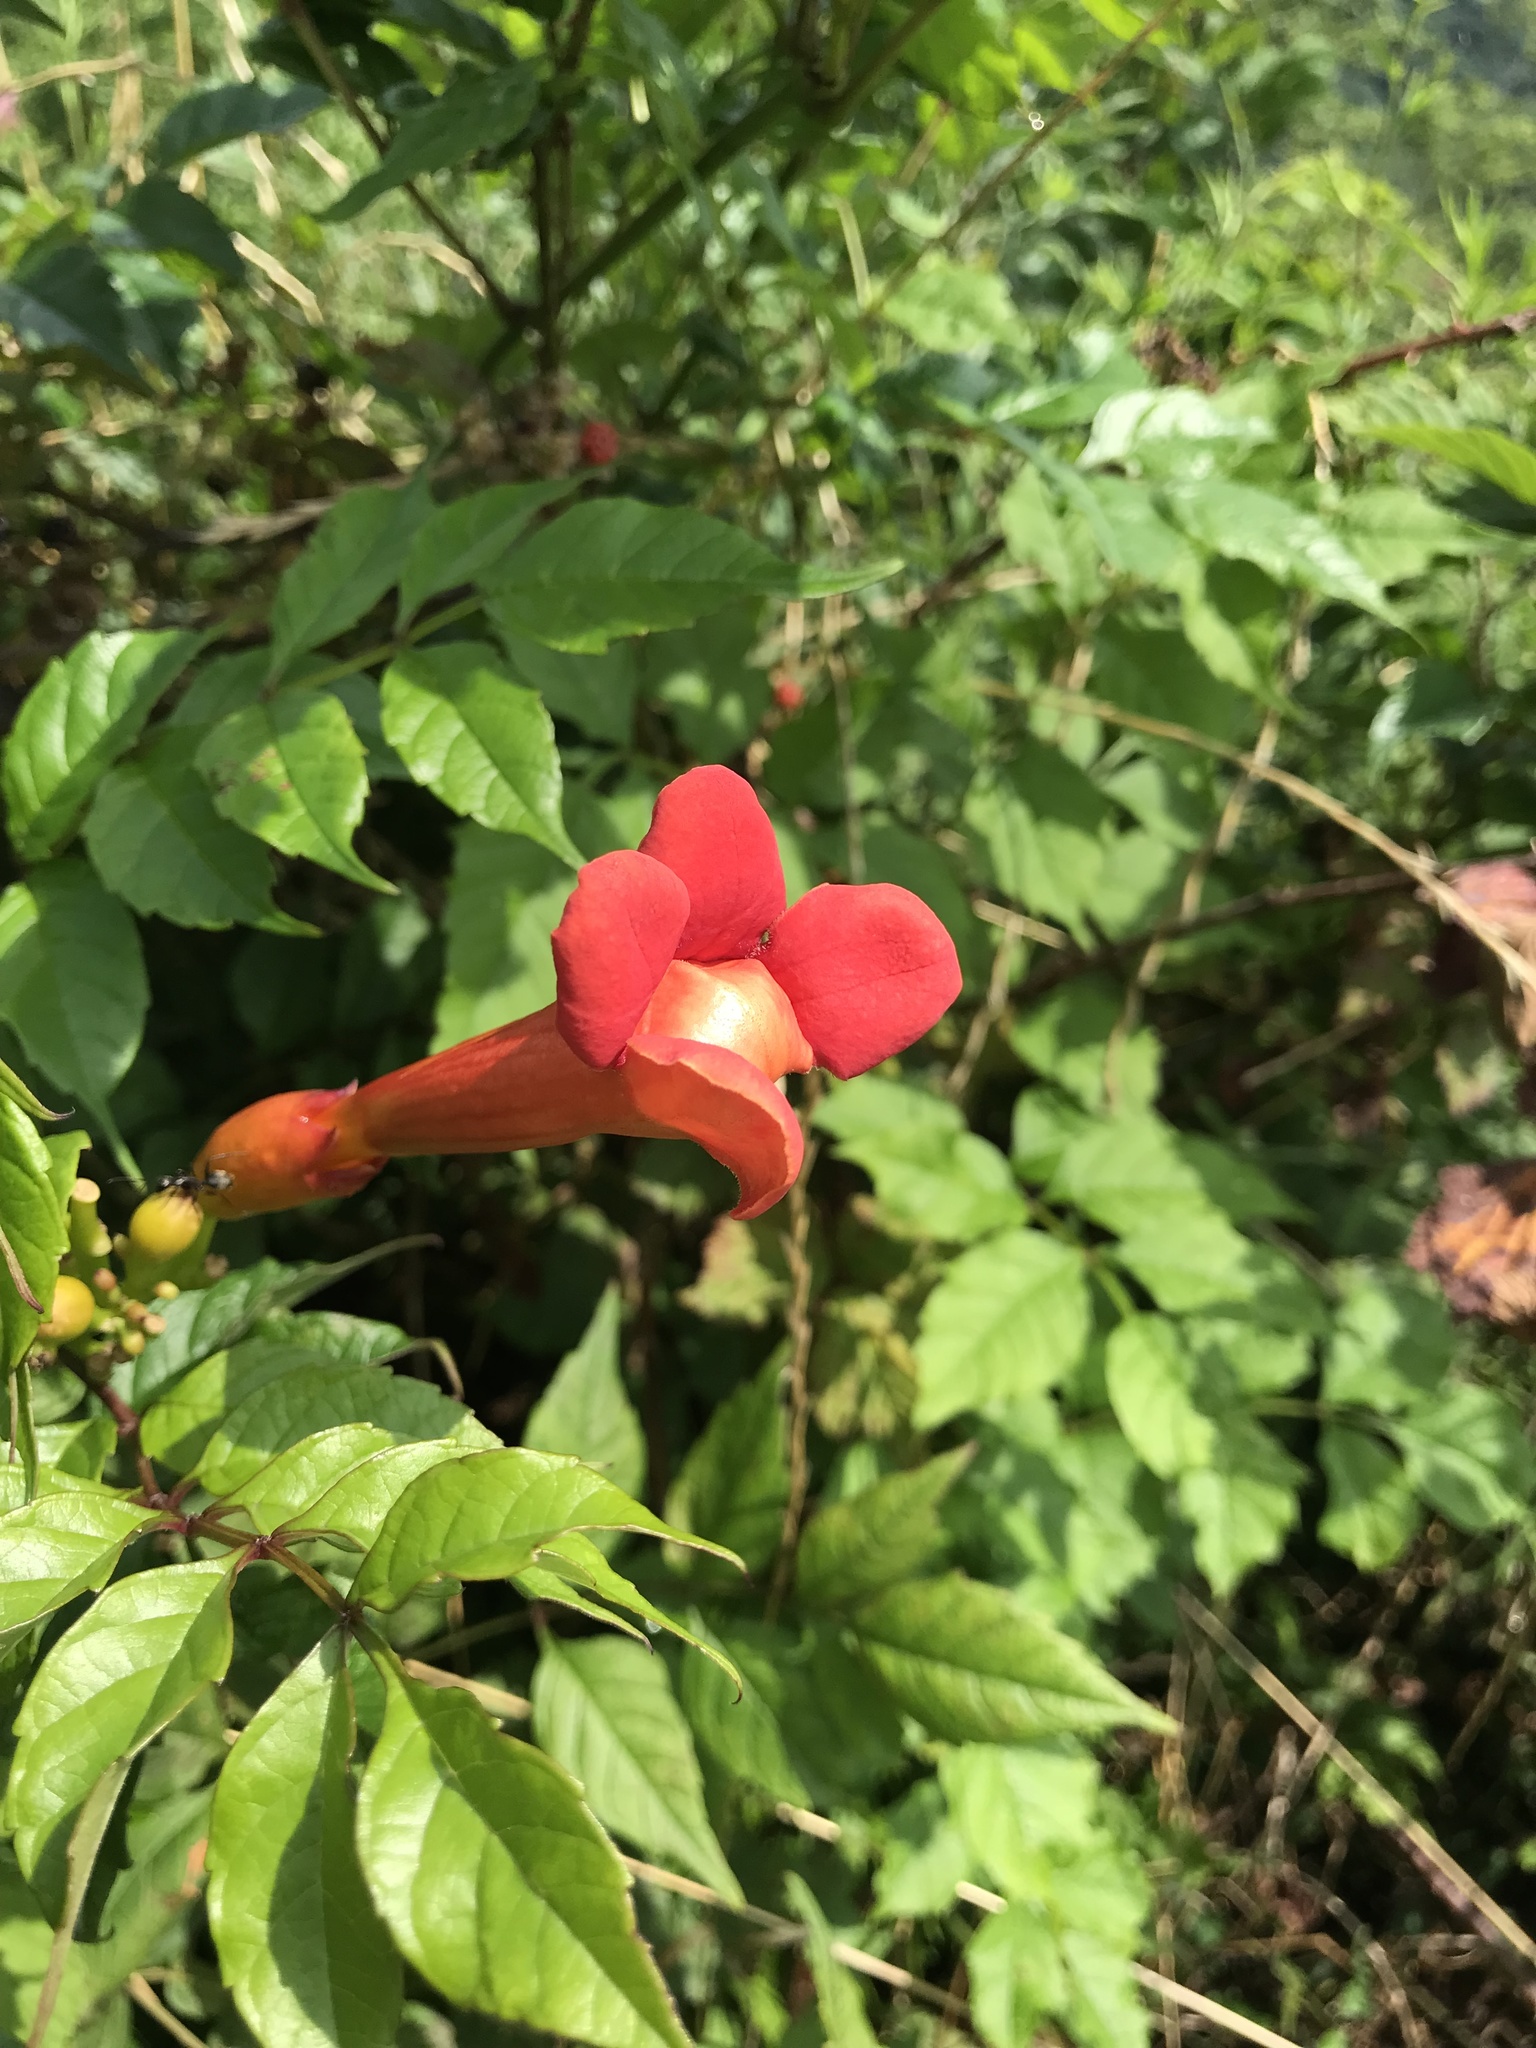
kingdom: Plantae
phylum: Tracheophyta
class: Magnoliopsida
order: Lamiales
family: Bignoniaceae
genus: Campsis
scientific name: Campsis radicans
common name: Trumpet-creeper
